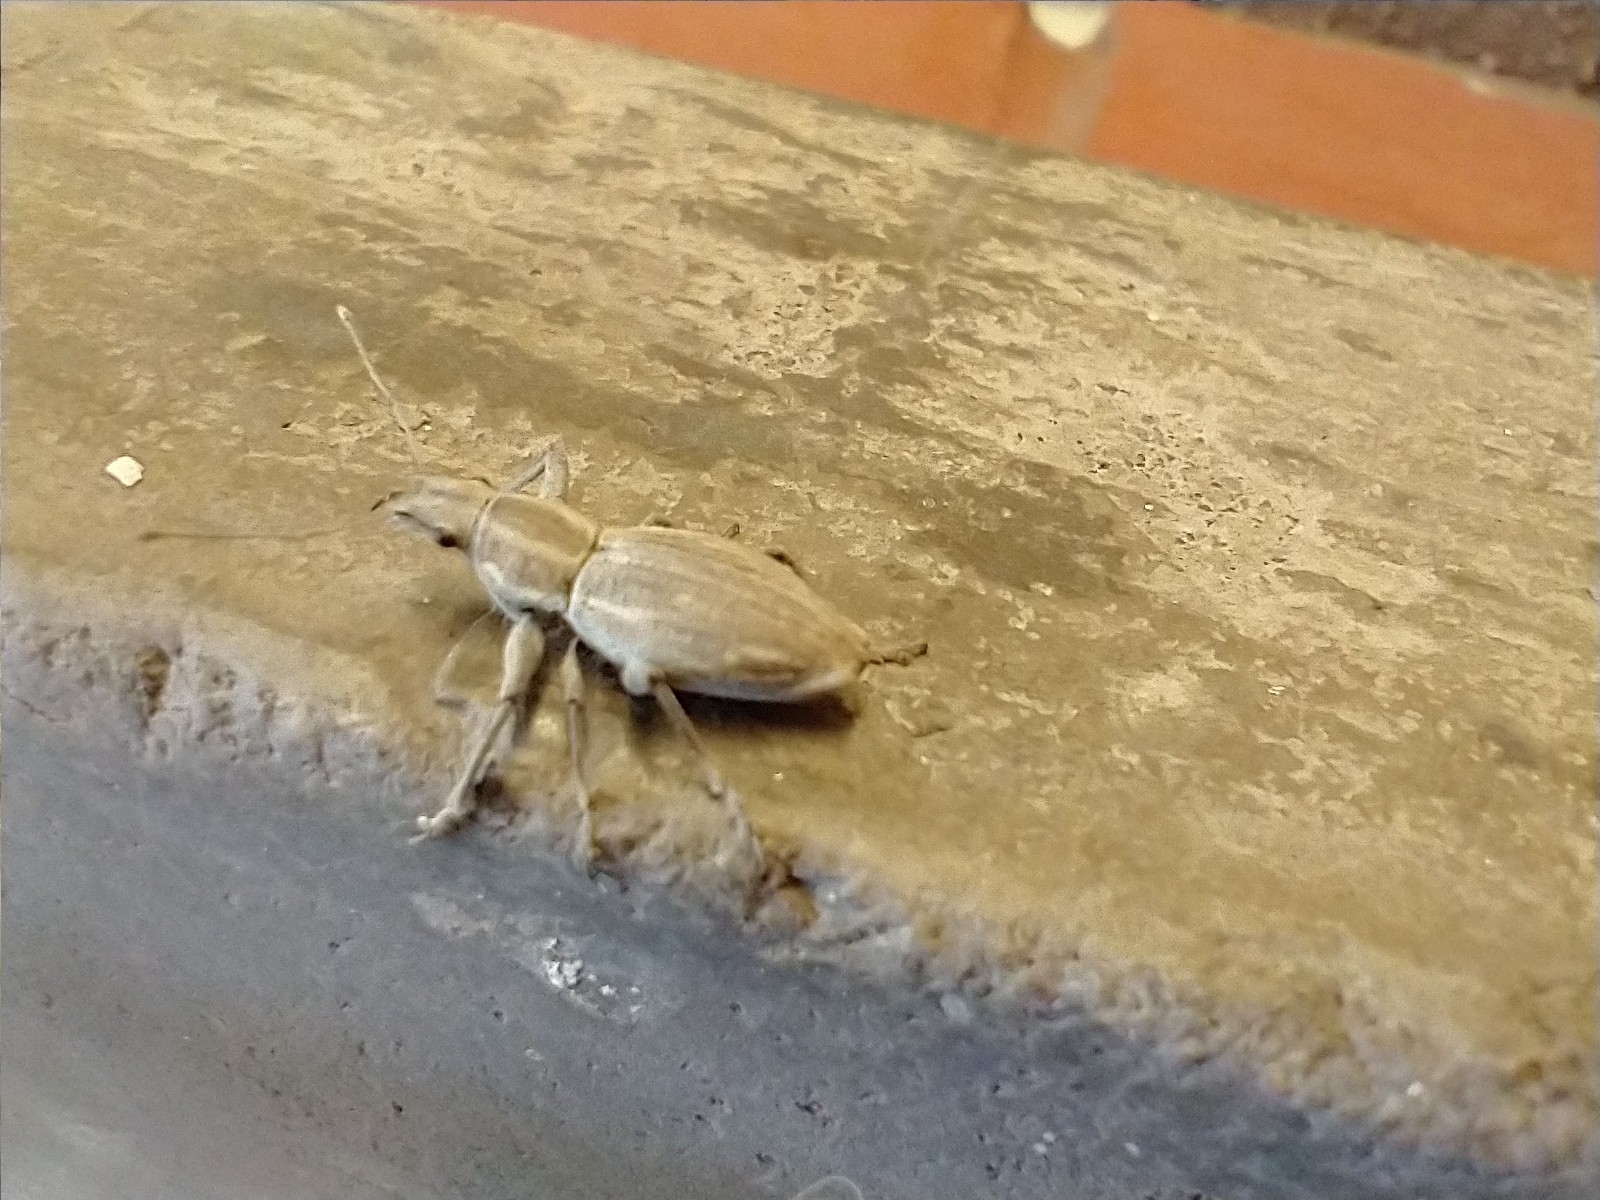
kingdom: Animalia
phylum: Arthropoda
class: Insecta
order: Coleoptera
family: Curculionidae
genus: Naupactus
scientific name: Naupactus xanthographus
